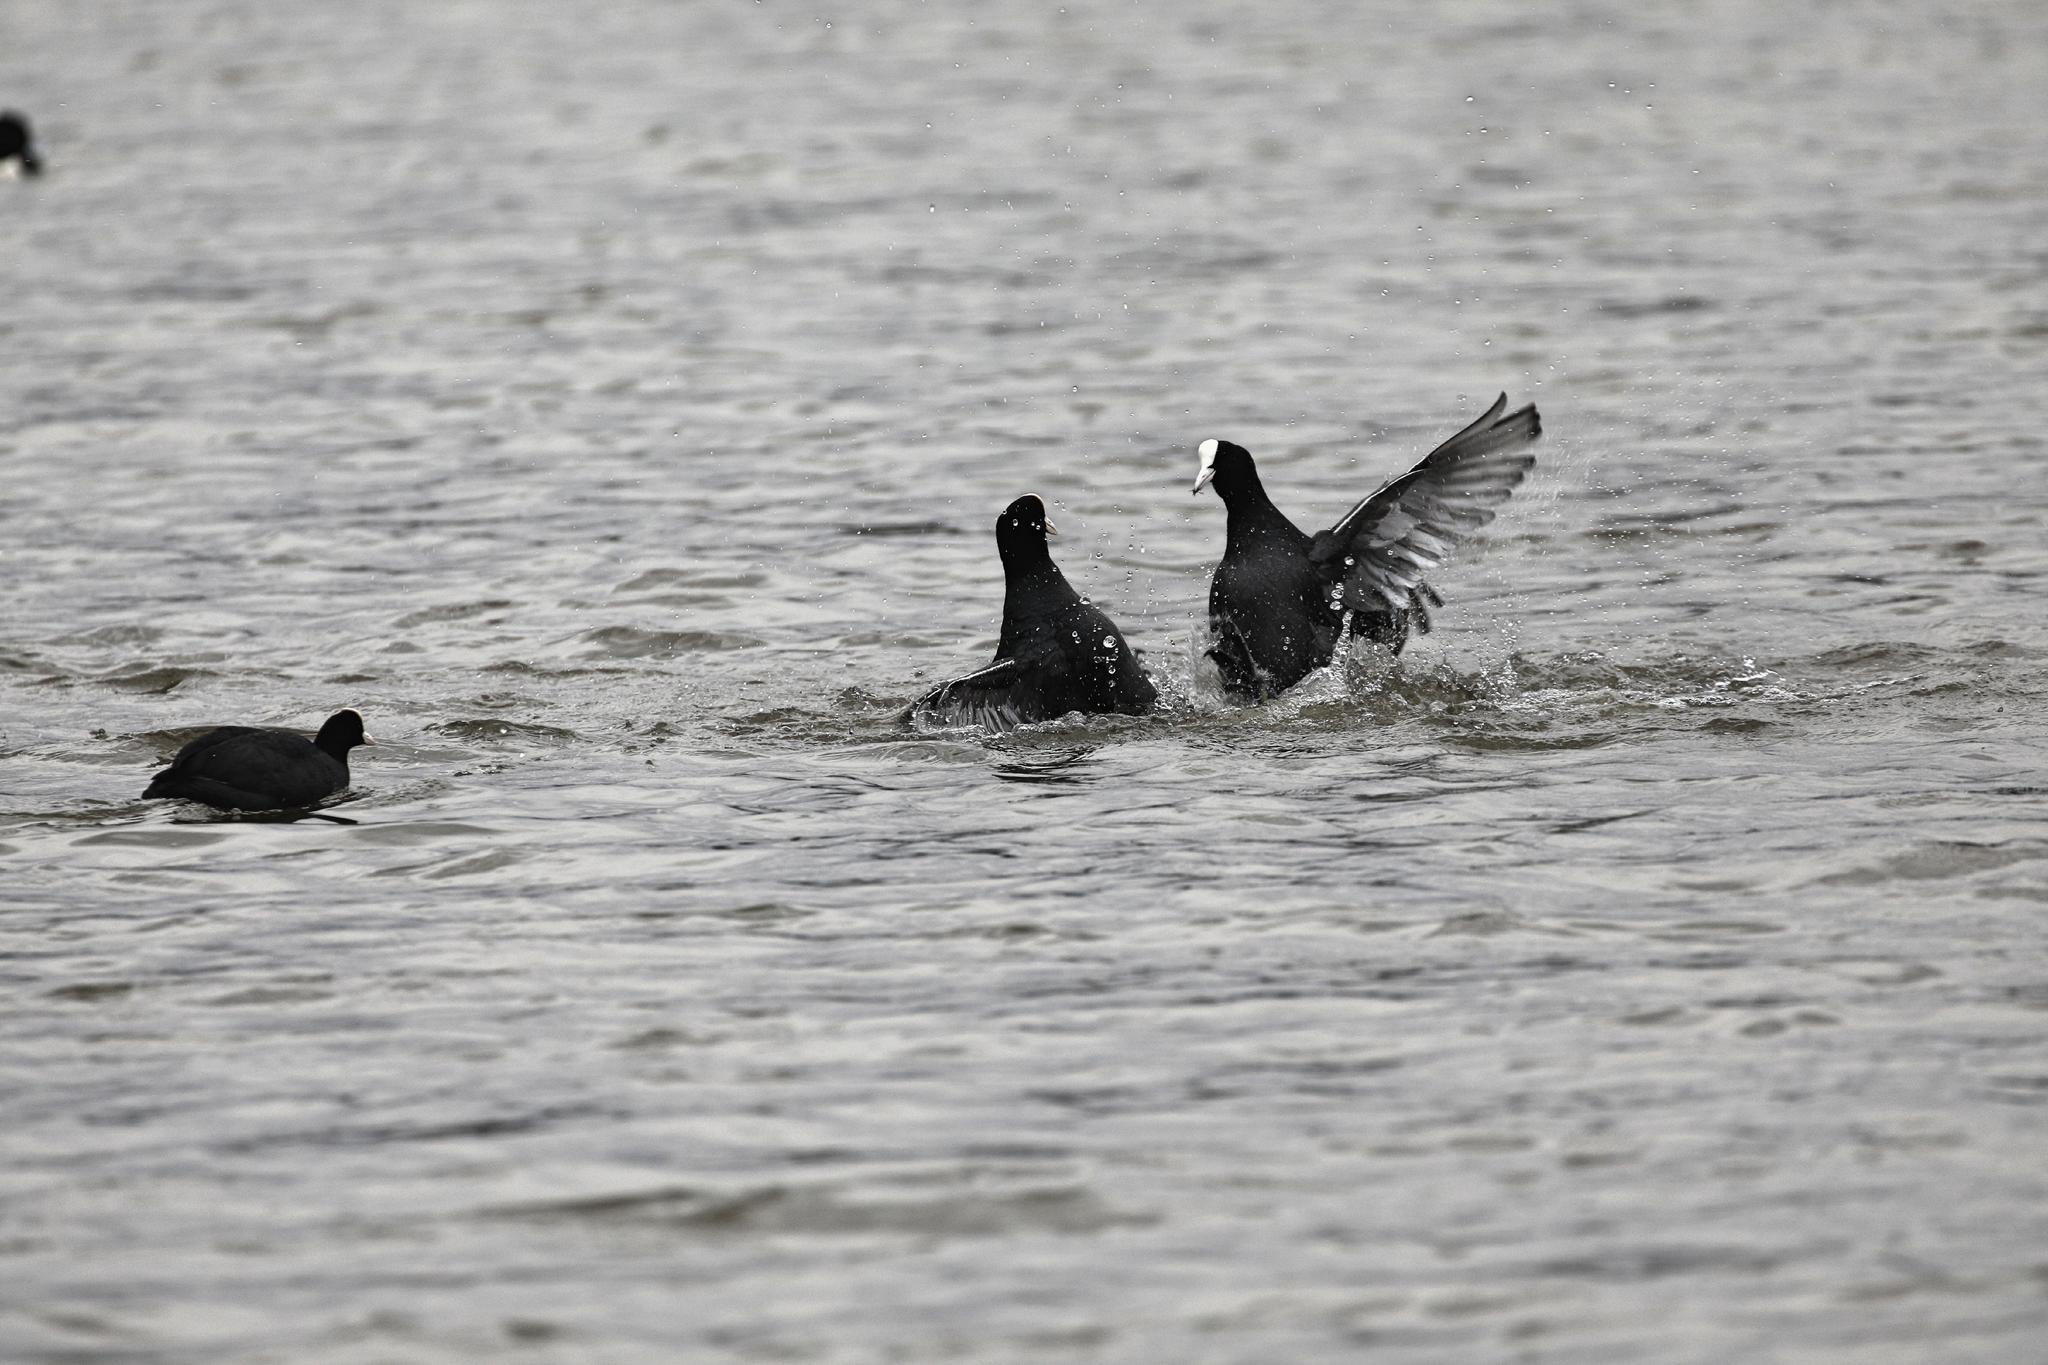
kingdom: Animalia
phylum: Chordata
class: Aves
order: Gruiformes
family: Rallidae
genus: Fulica
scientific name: Fulica atra
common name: Eurasian coot
